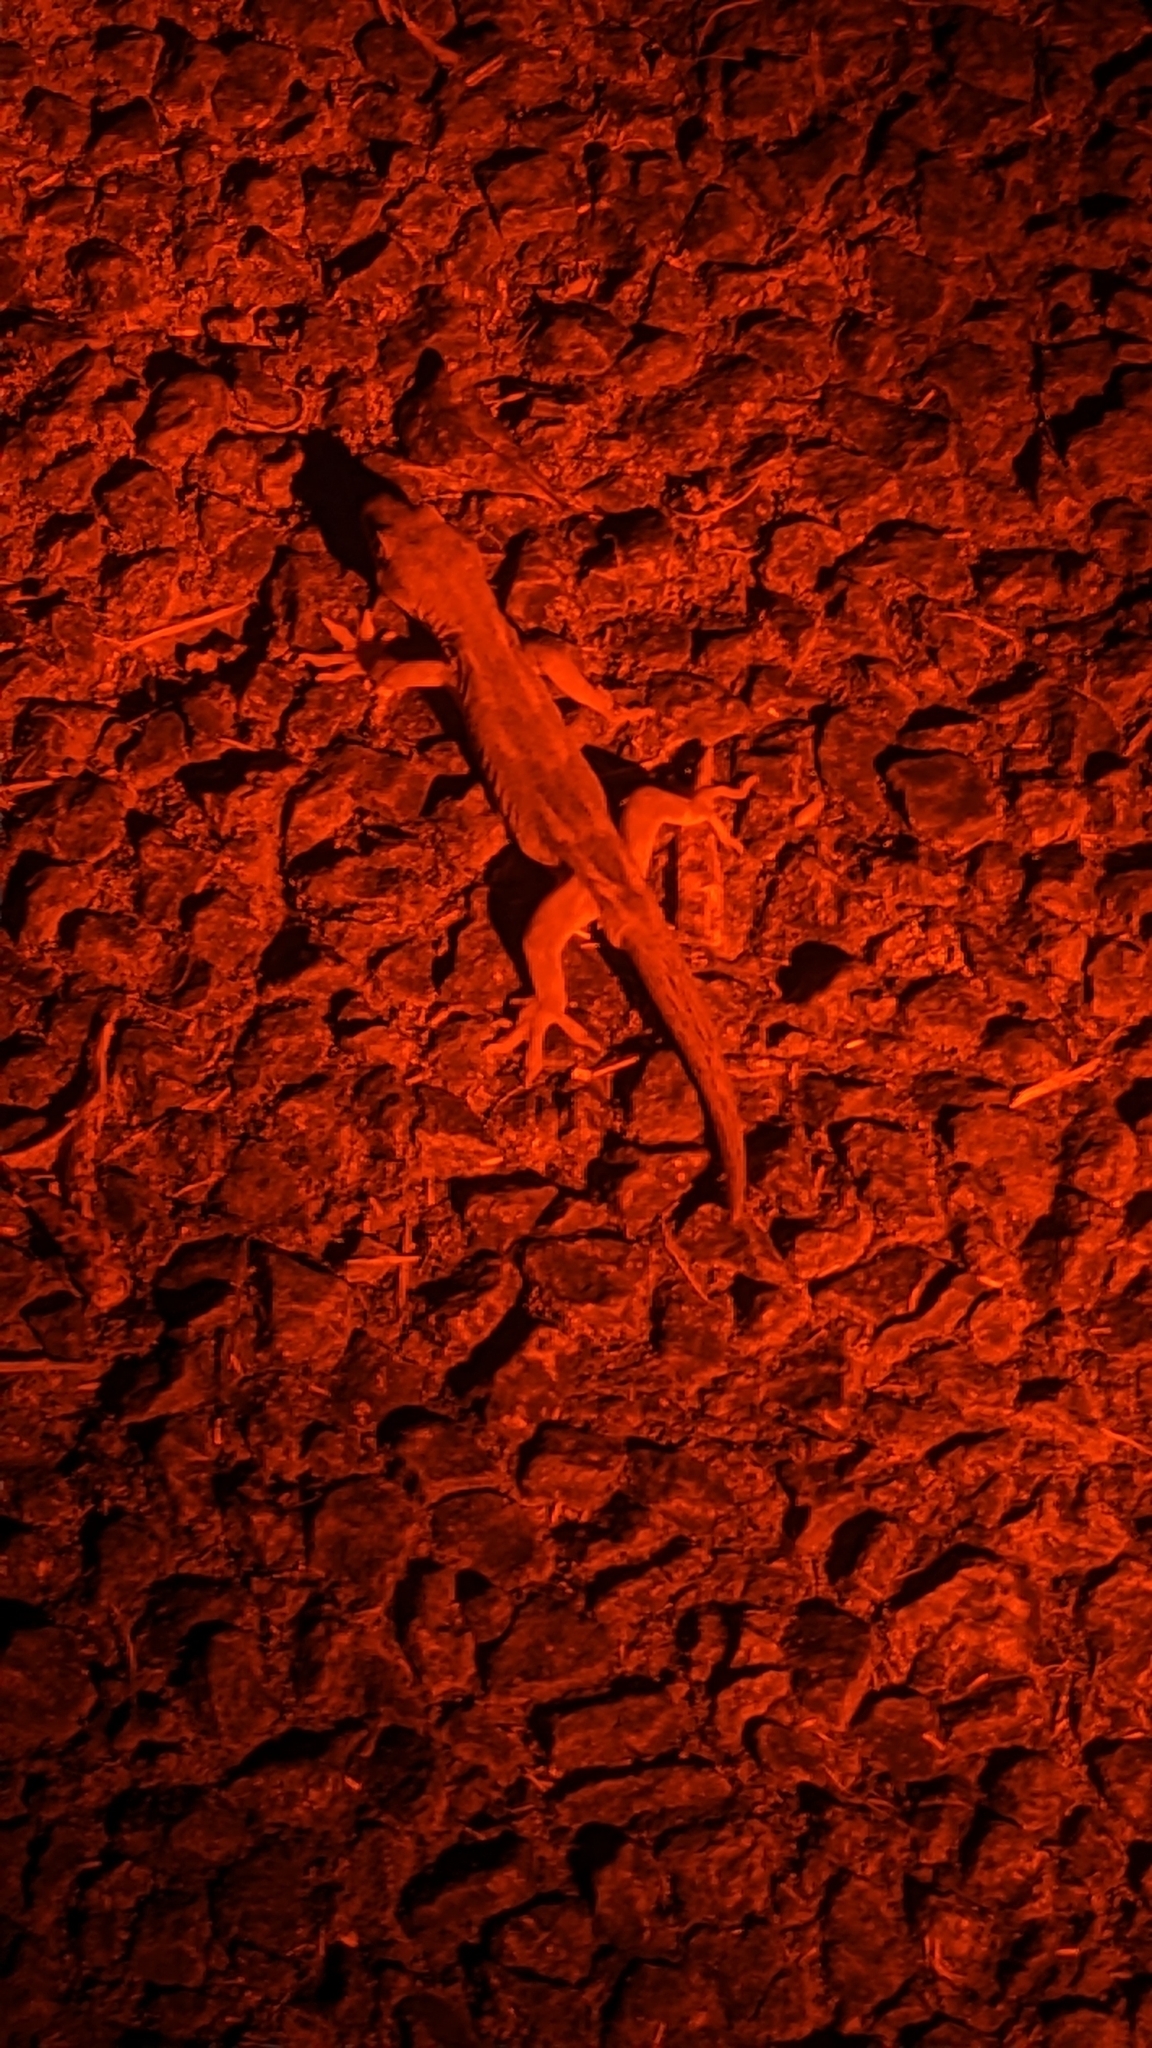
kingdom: Animalia
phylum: Chordata
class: Squamata
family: Diplodactylidae
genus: Woodworthia
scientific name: Woodworthia maculata
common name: Raukawa gecko
